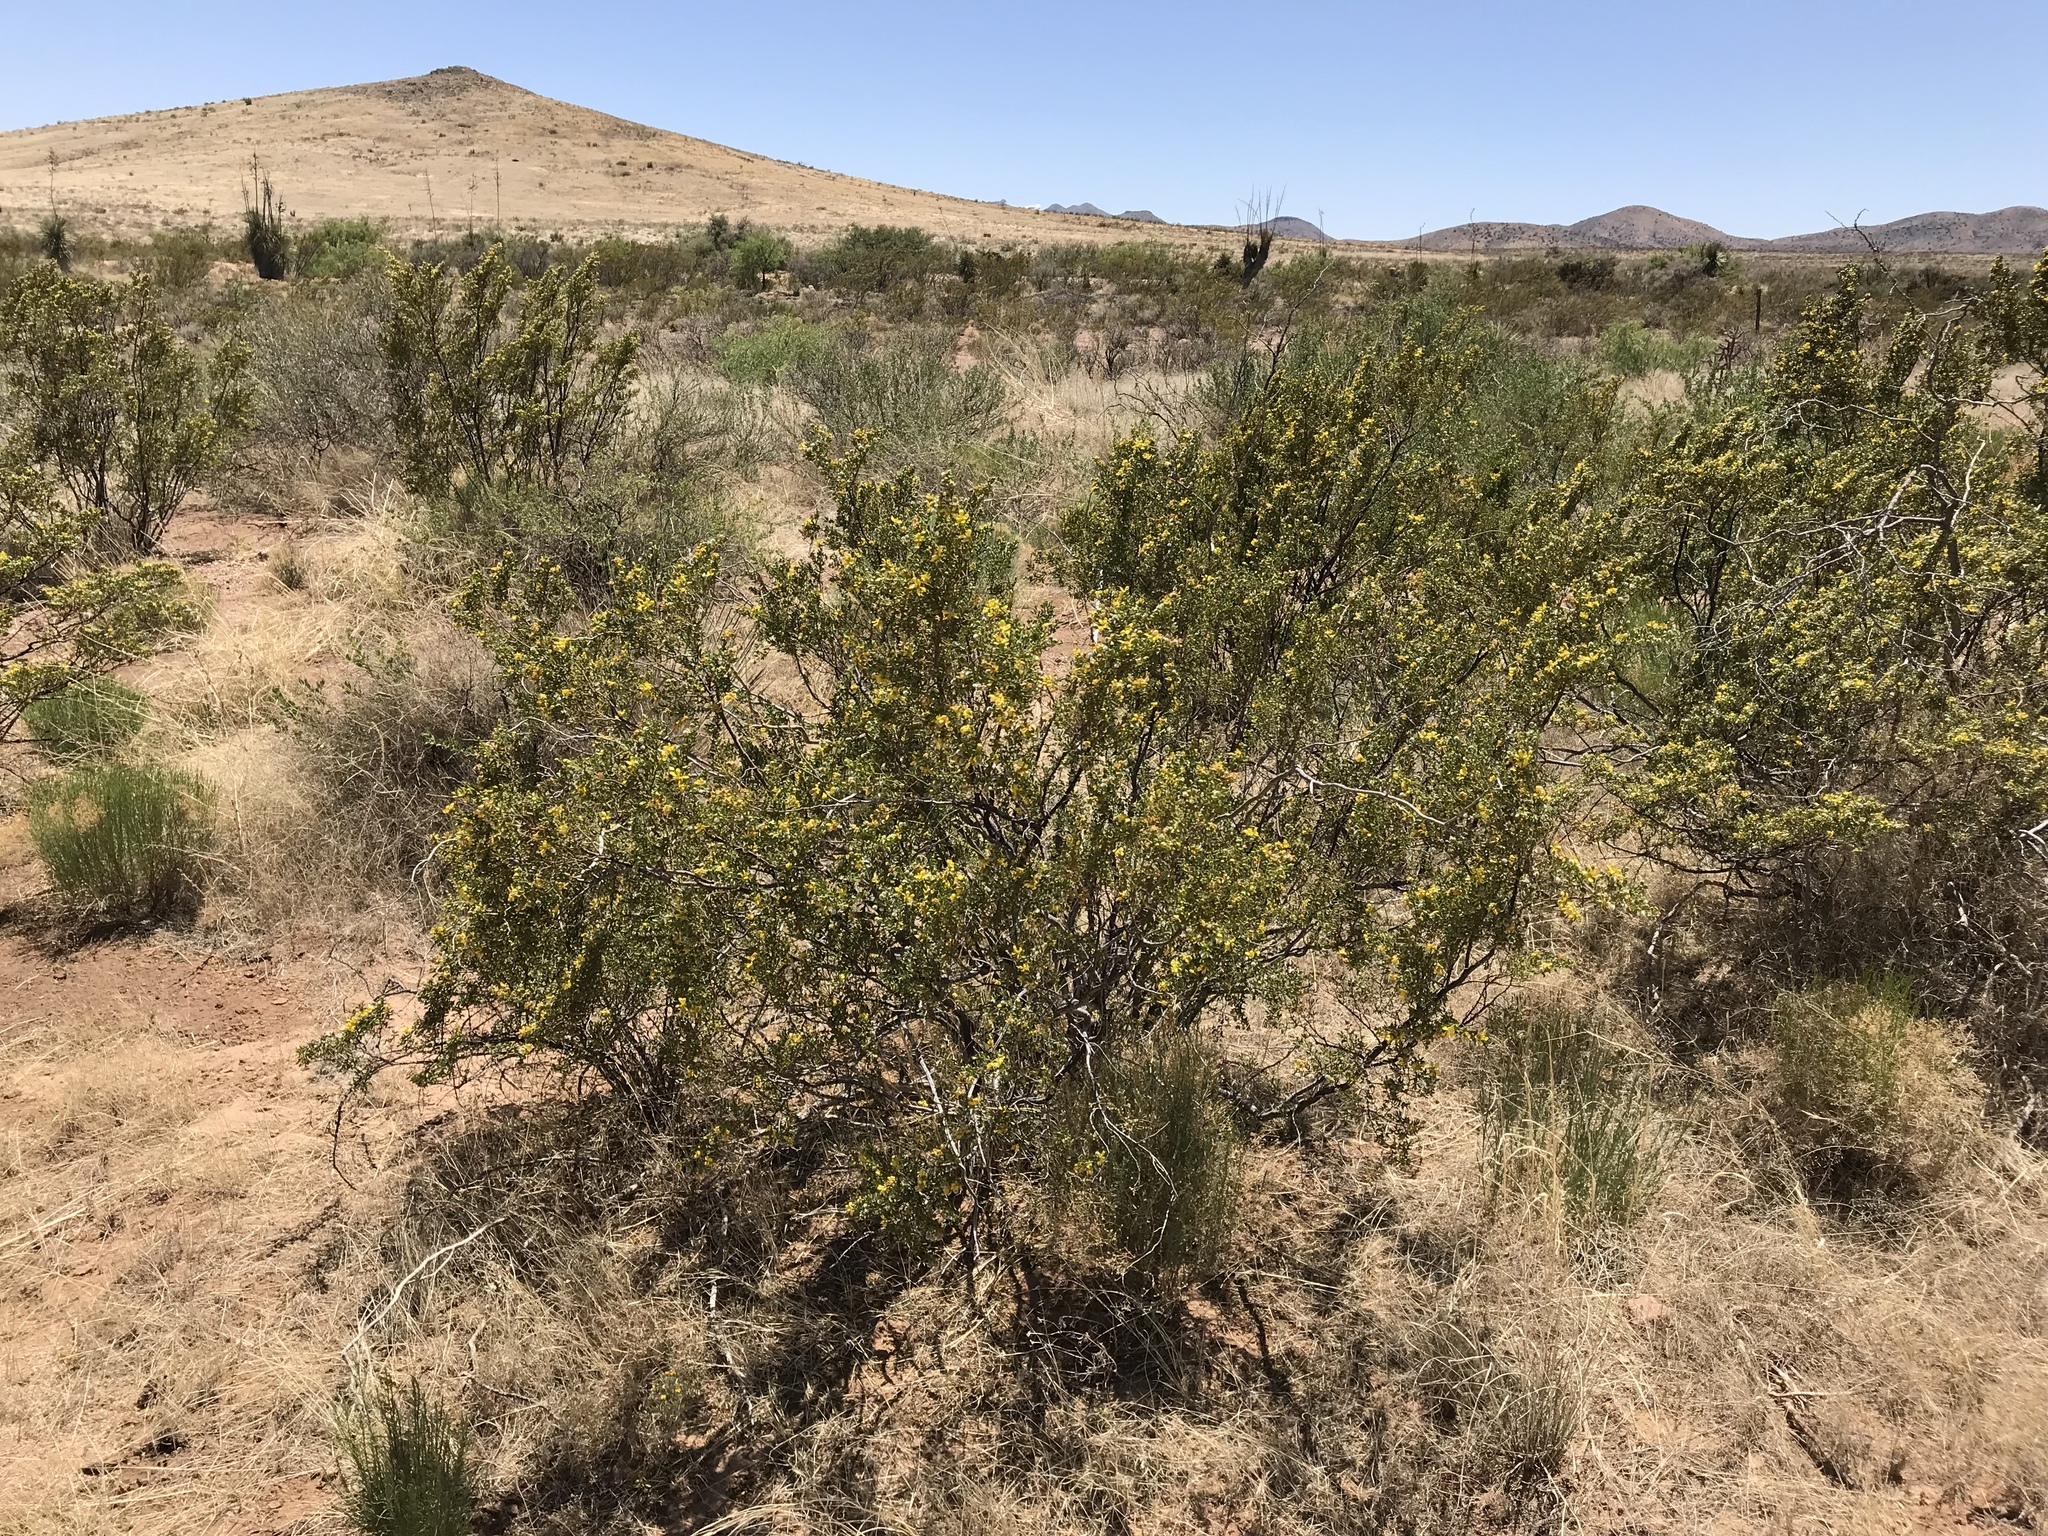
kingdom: Plantae
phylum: Tracheophyta
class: Magnoliopsida
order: Zygophyllales
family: Zygophyllaceae
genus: Larrea
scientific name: Larrea tridentata
